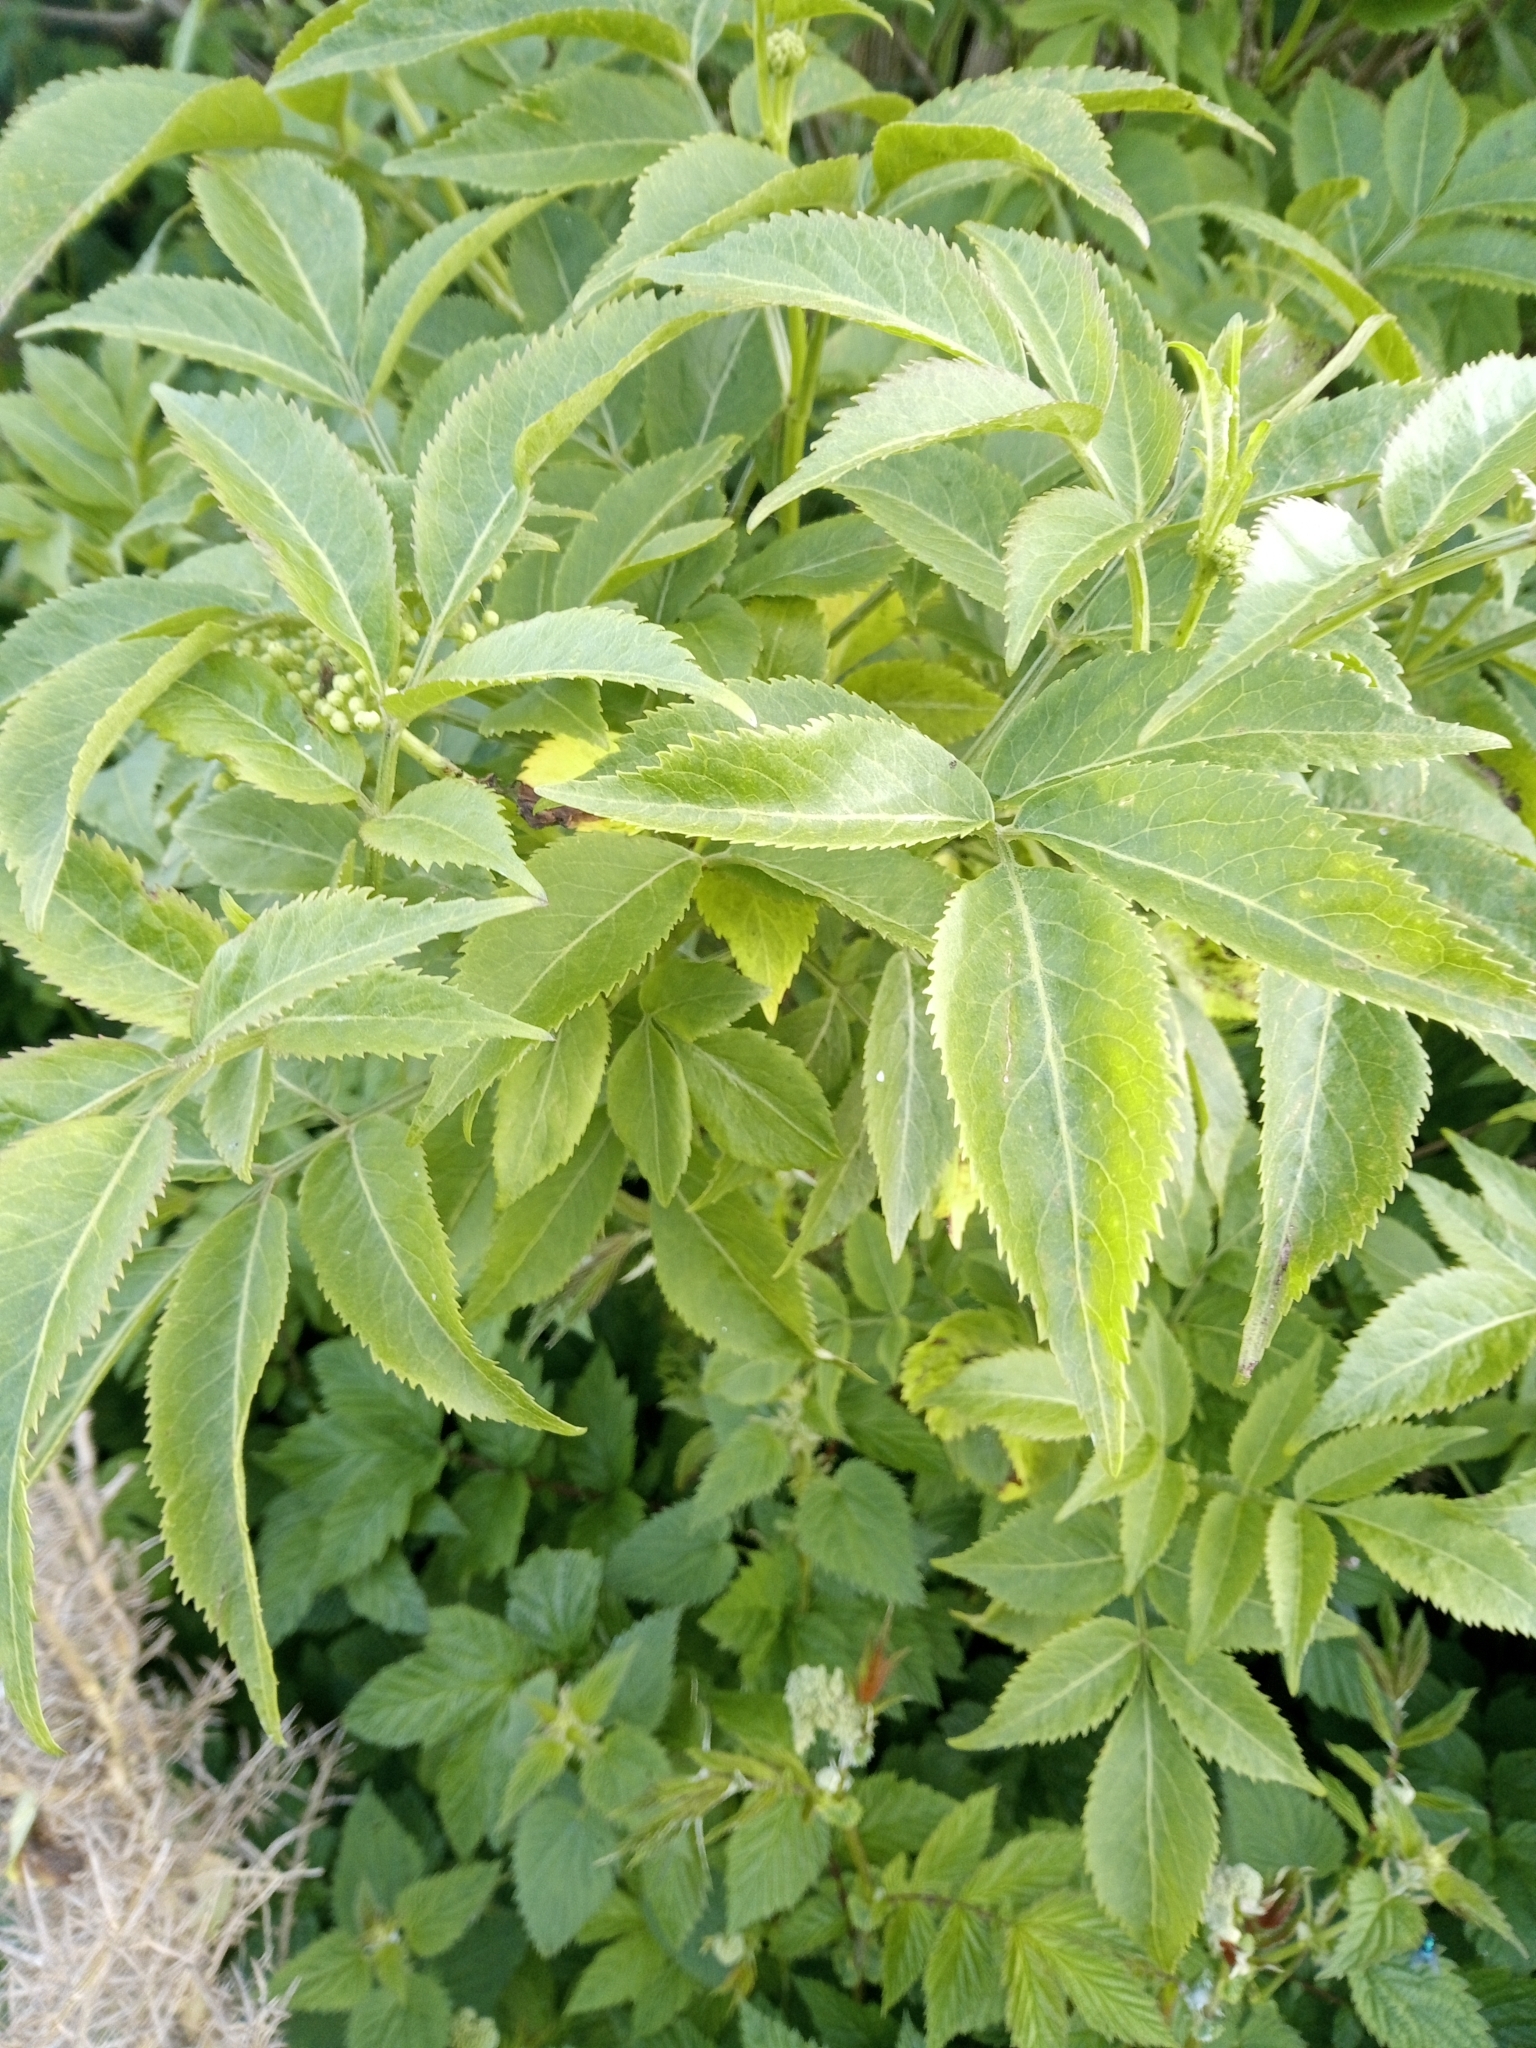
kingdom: Plantae
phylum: Tracheophyta
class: Magnoliopsida
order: Dipsacales
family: Viburnaceae
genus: Sambucus
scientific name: Sambucus nigra
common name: Elder
